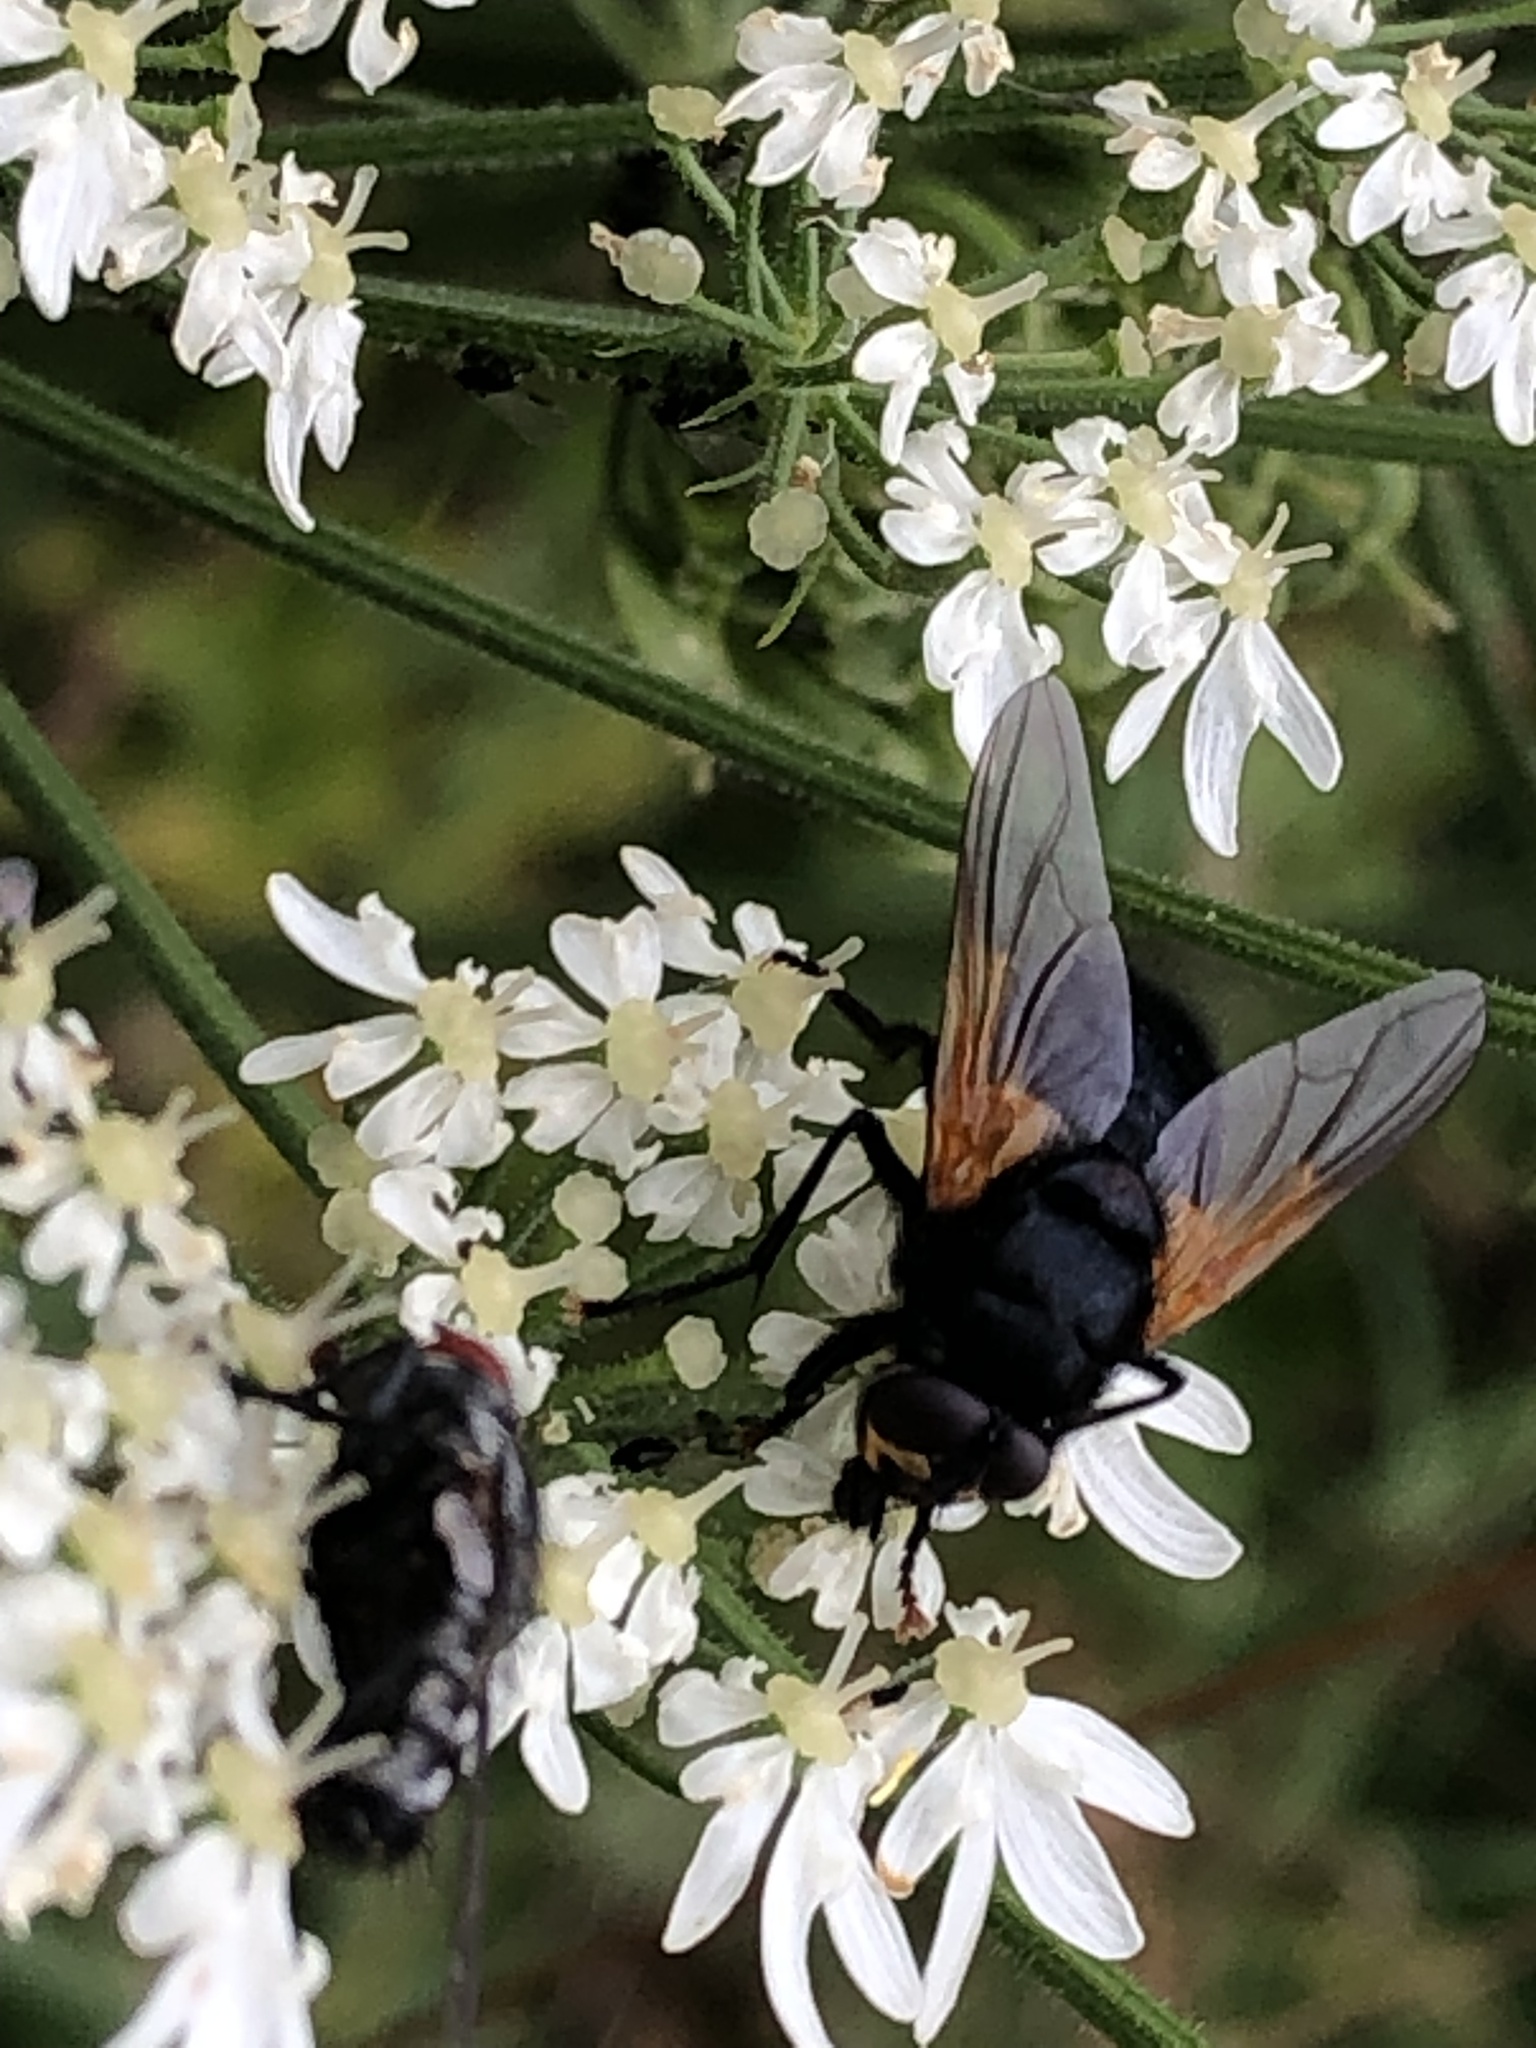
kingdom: Animalia
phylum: Arthropoda
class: Insecta
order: Diptera
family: Muscidae
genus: Mesembrina
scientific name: Mesembrina meridiana
